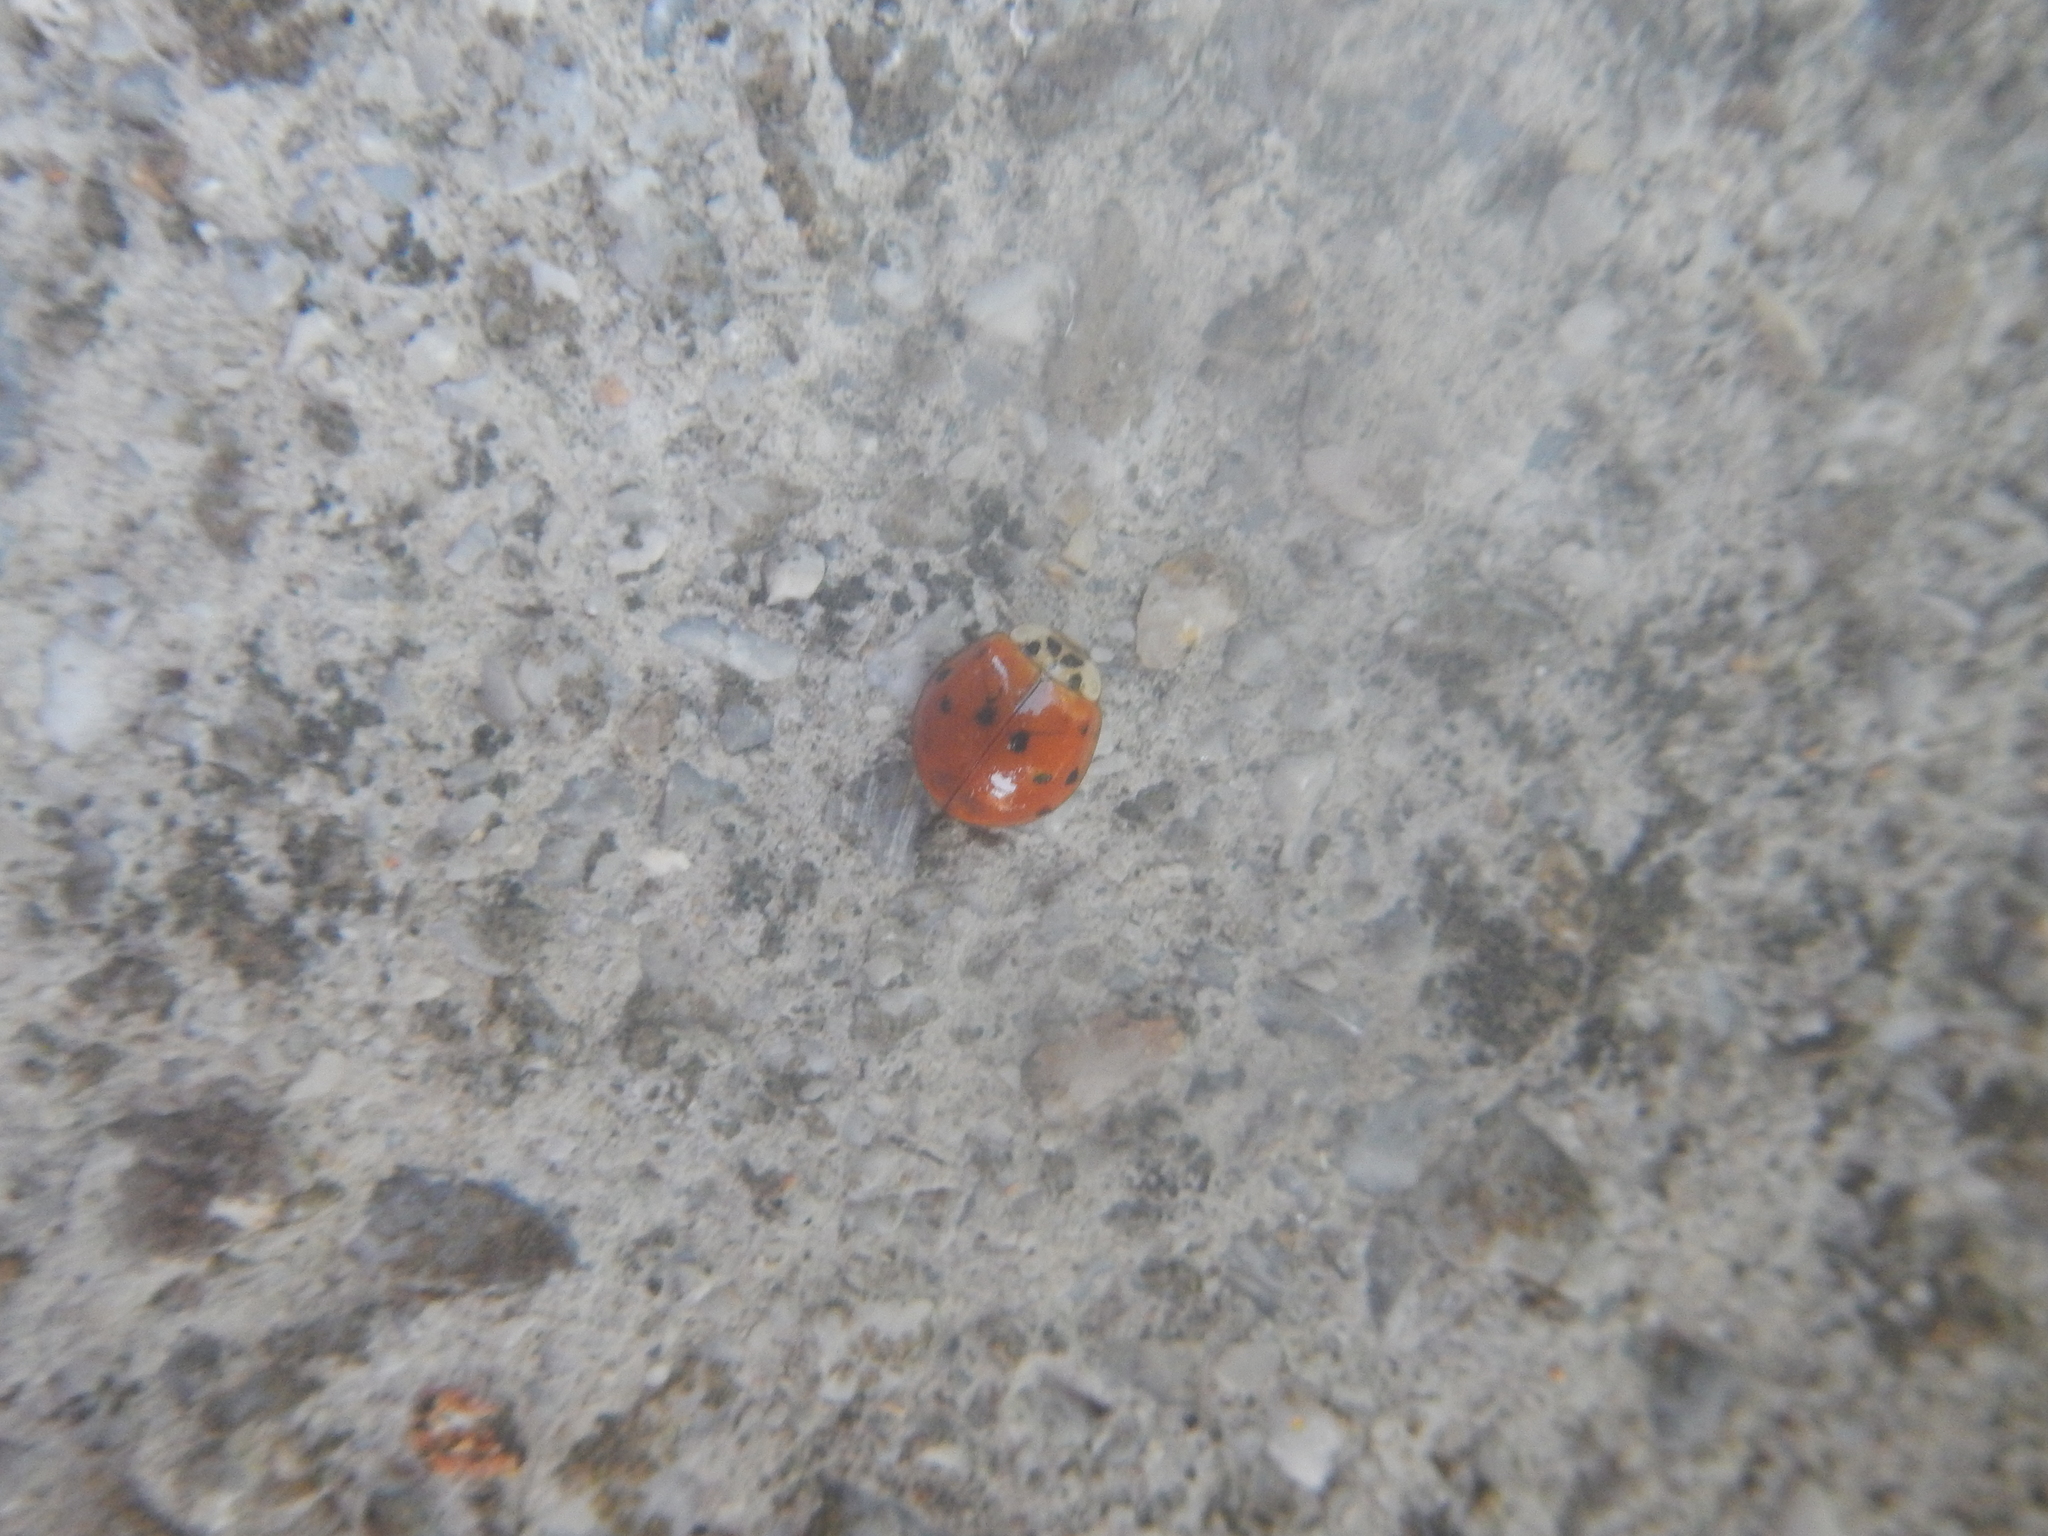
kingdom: Animalia
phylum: Arthropoda
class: Insecta
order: Coleoptera
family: Coccinellidae
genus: Harmonia
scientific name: Harmonia axyridis
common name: Harlequin ladybird
